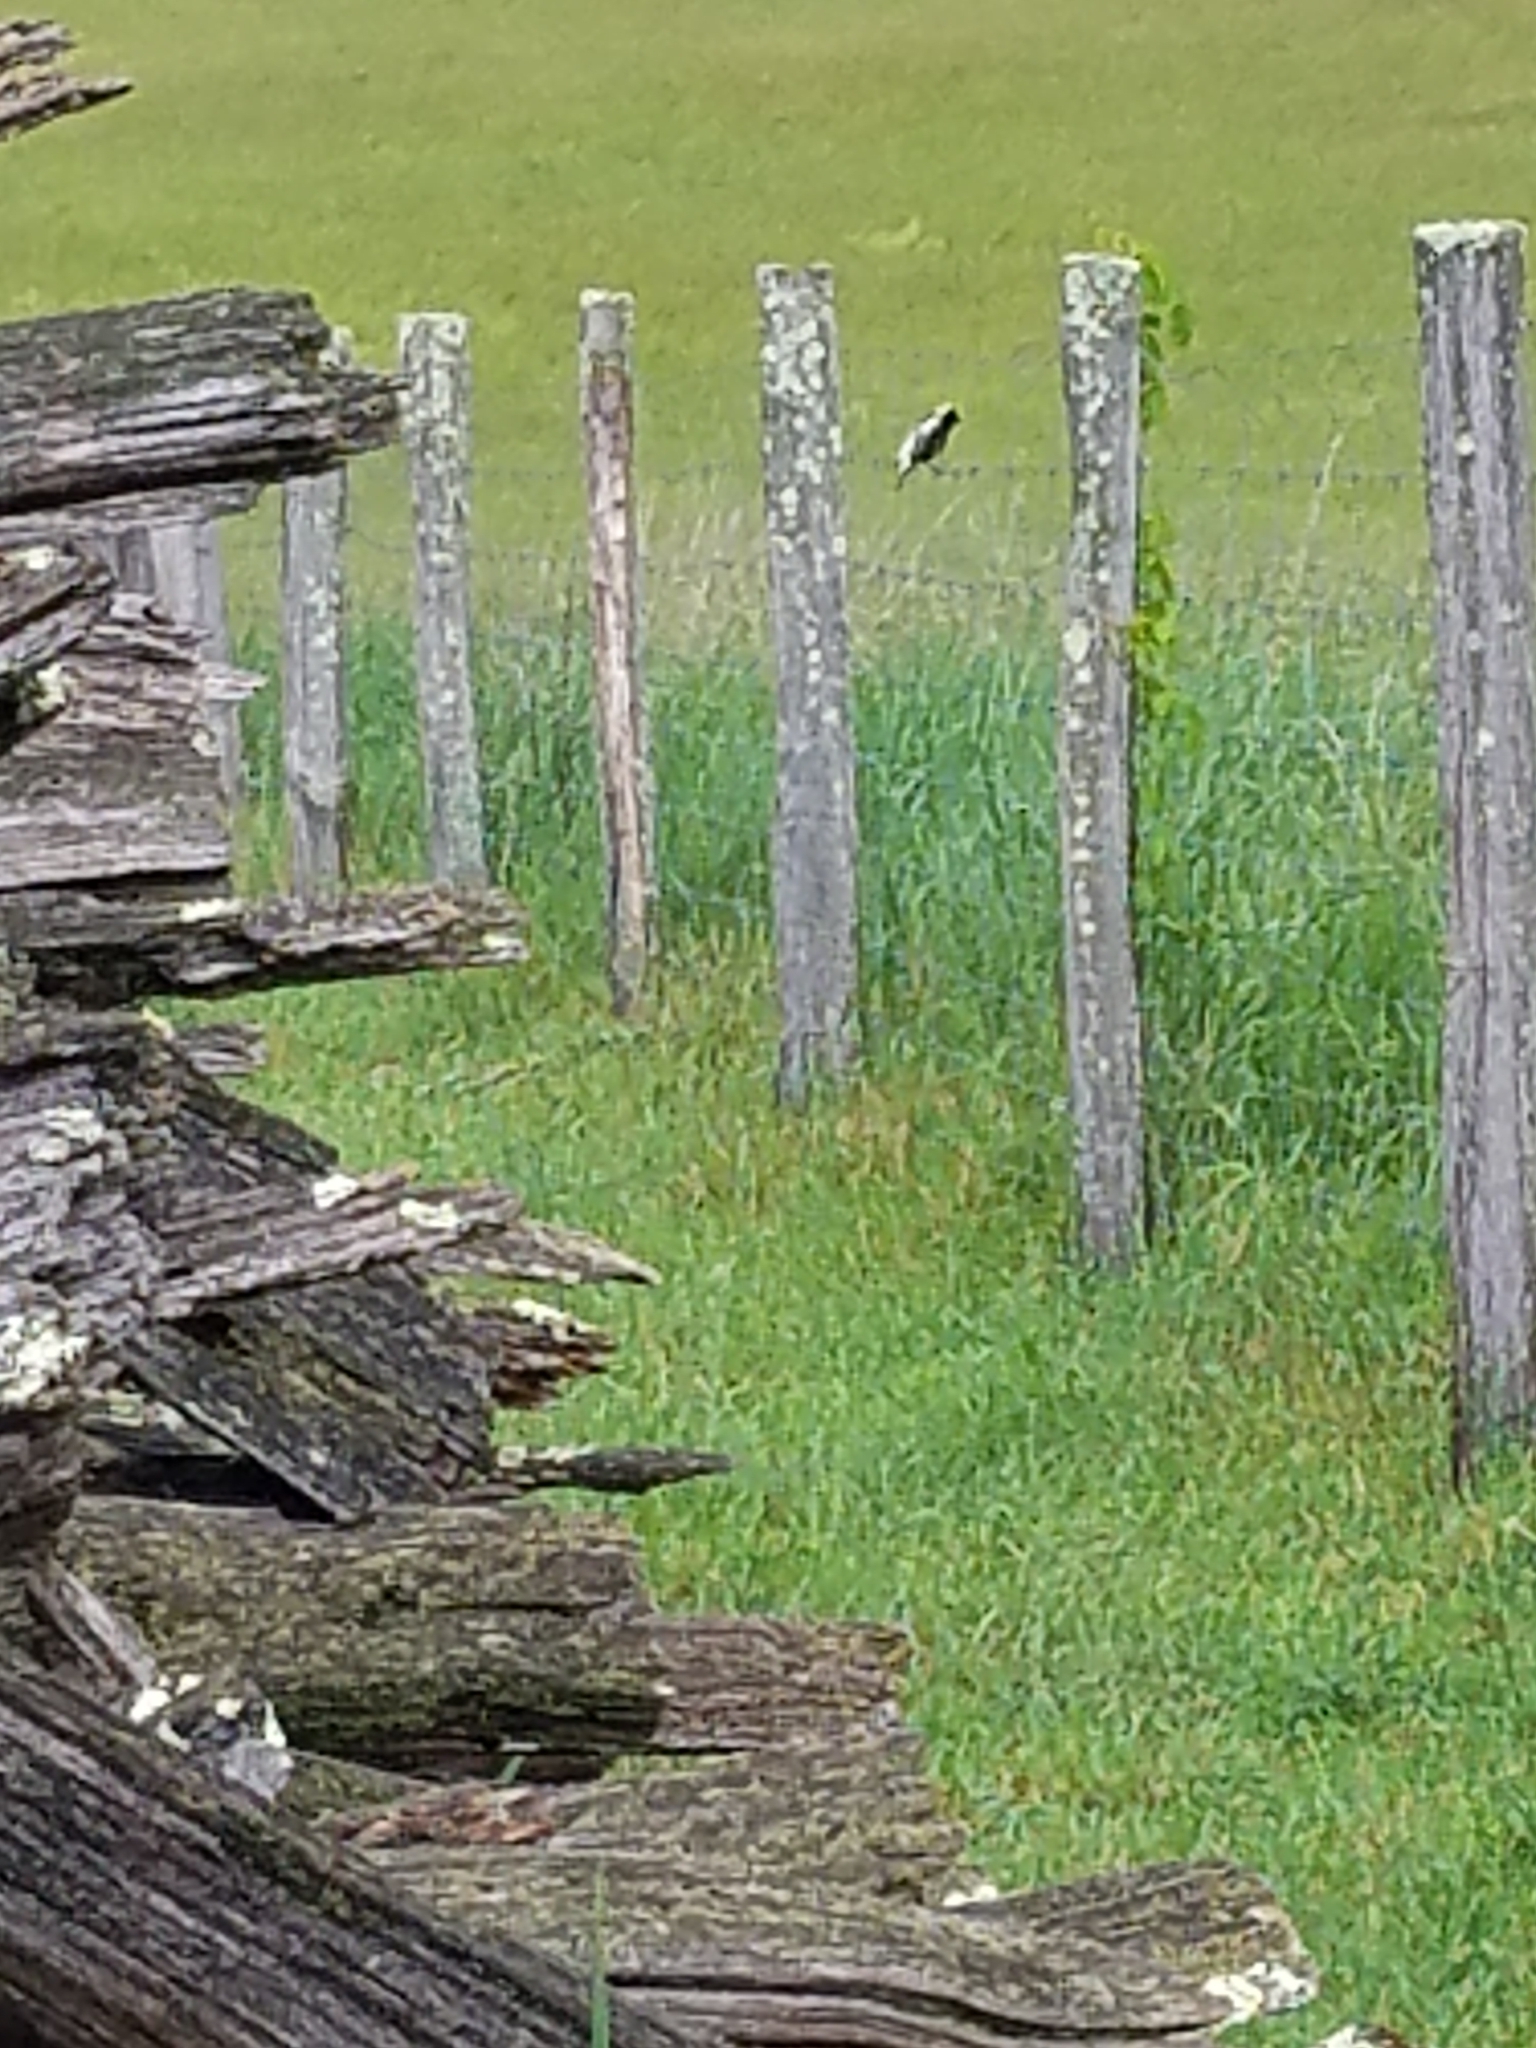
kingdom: Animalia
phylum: Chordata
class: Aves
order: Passeriformes
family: Icteridae
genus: Dolichonyx
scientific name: Dolichonyx oryzivorus
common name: Bobolink
